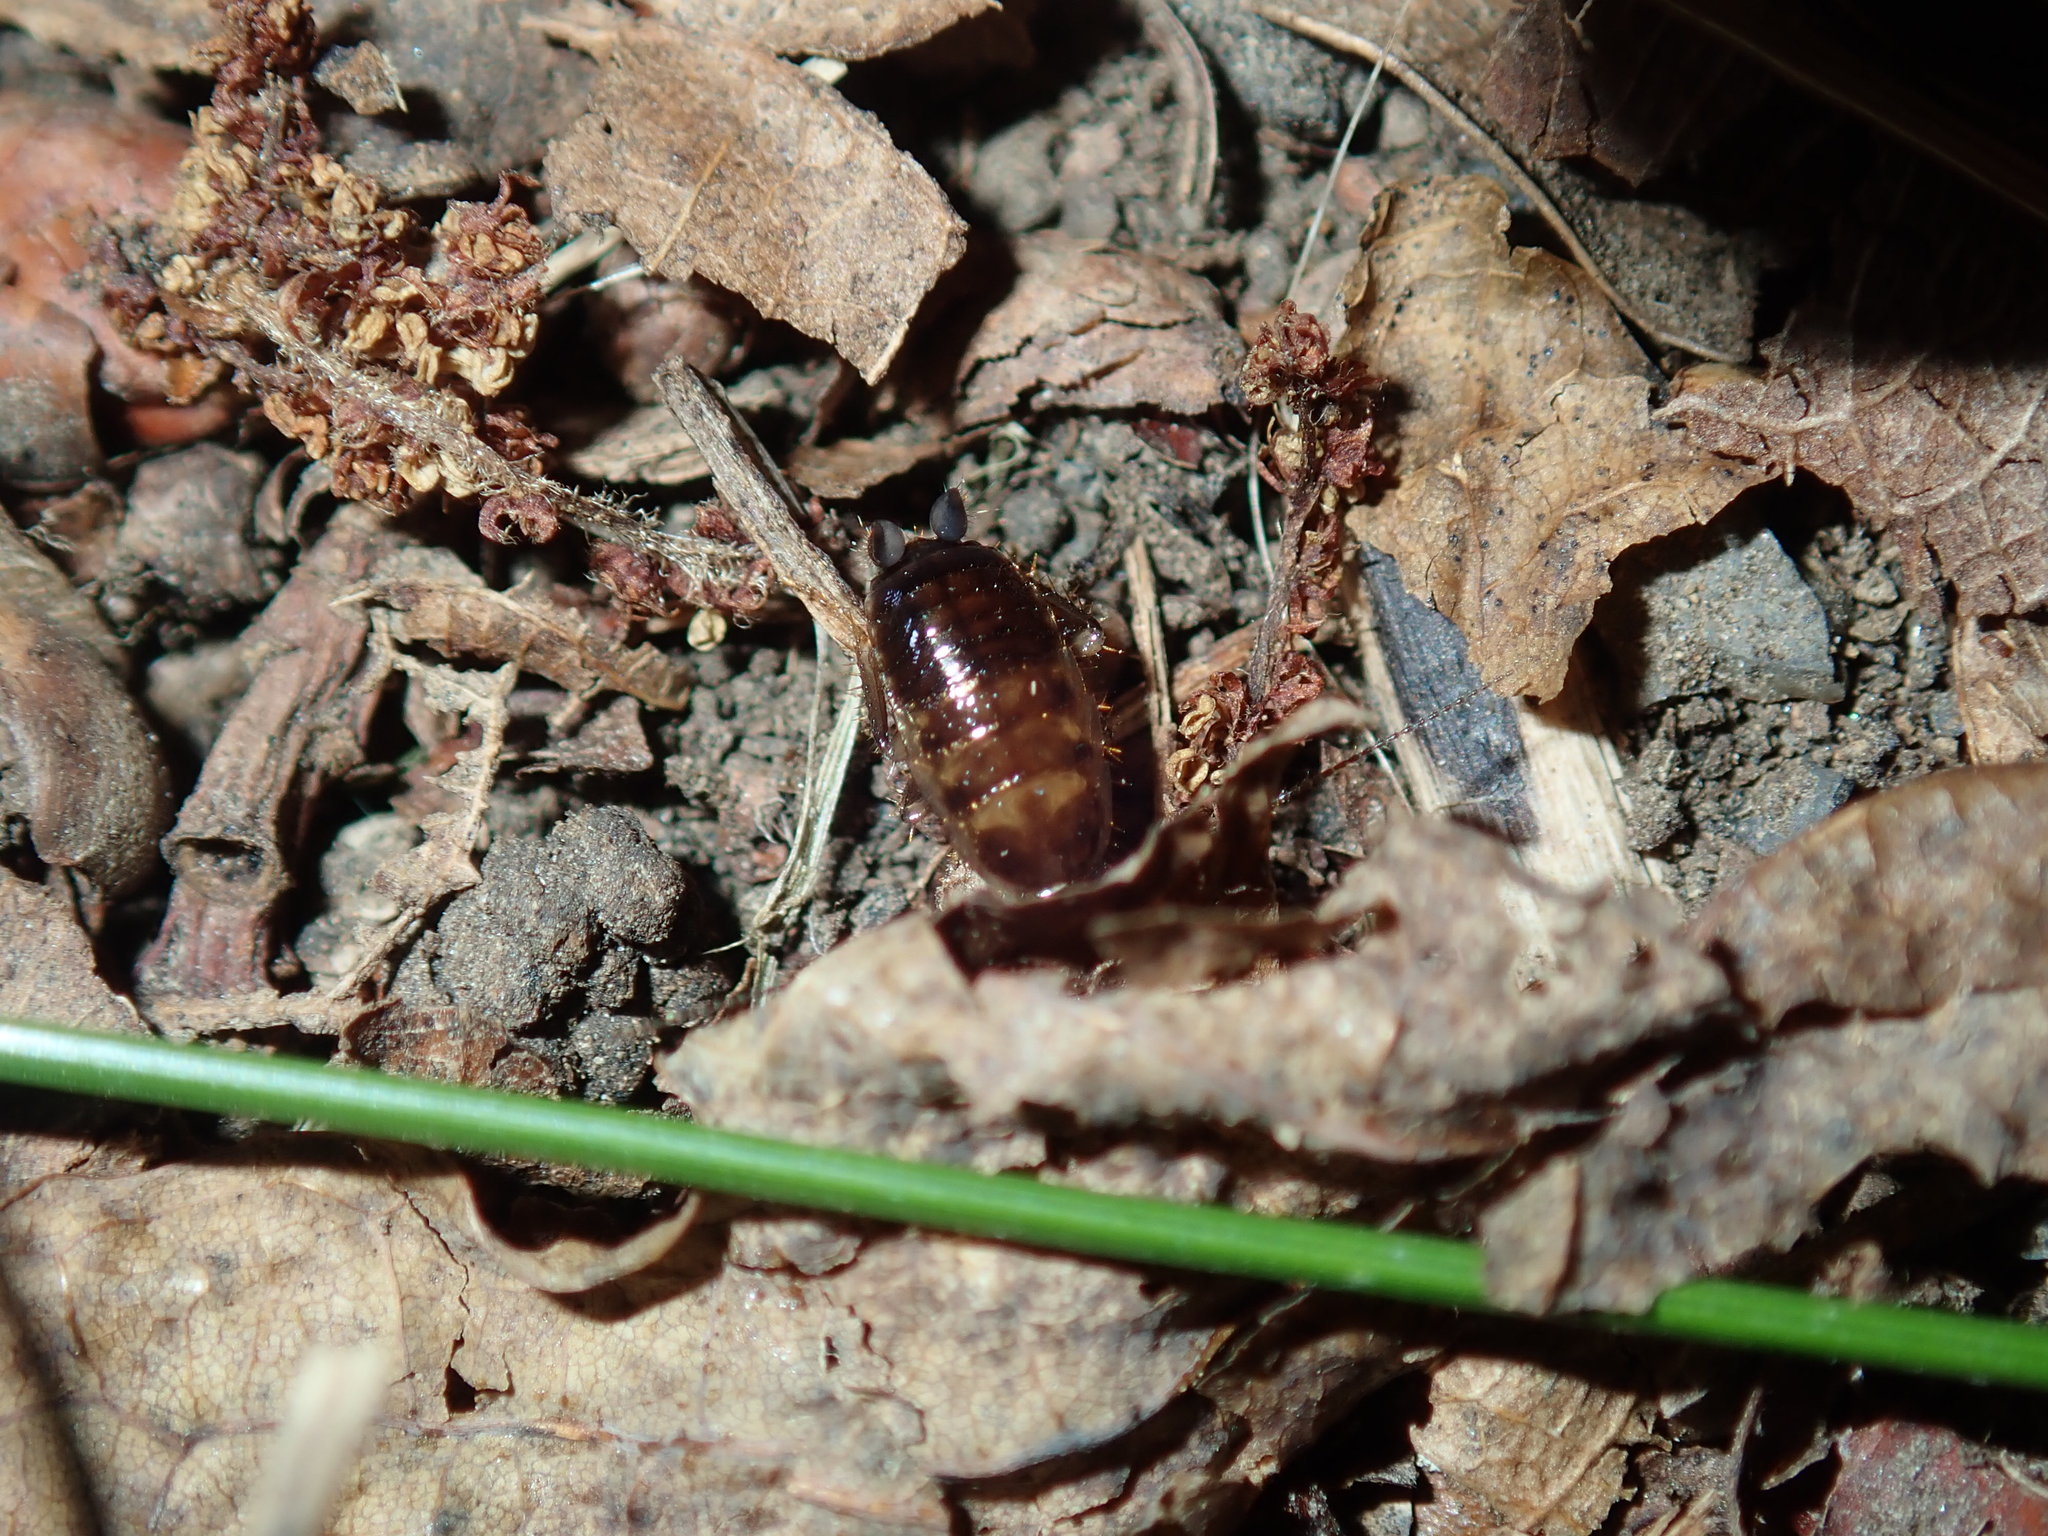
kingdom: Animalia
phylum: Arthropoda
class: Insecta
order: Blattodea
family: Blattidae
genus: Temnelytra
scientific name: Temnelytra truncata
